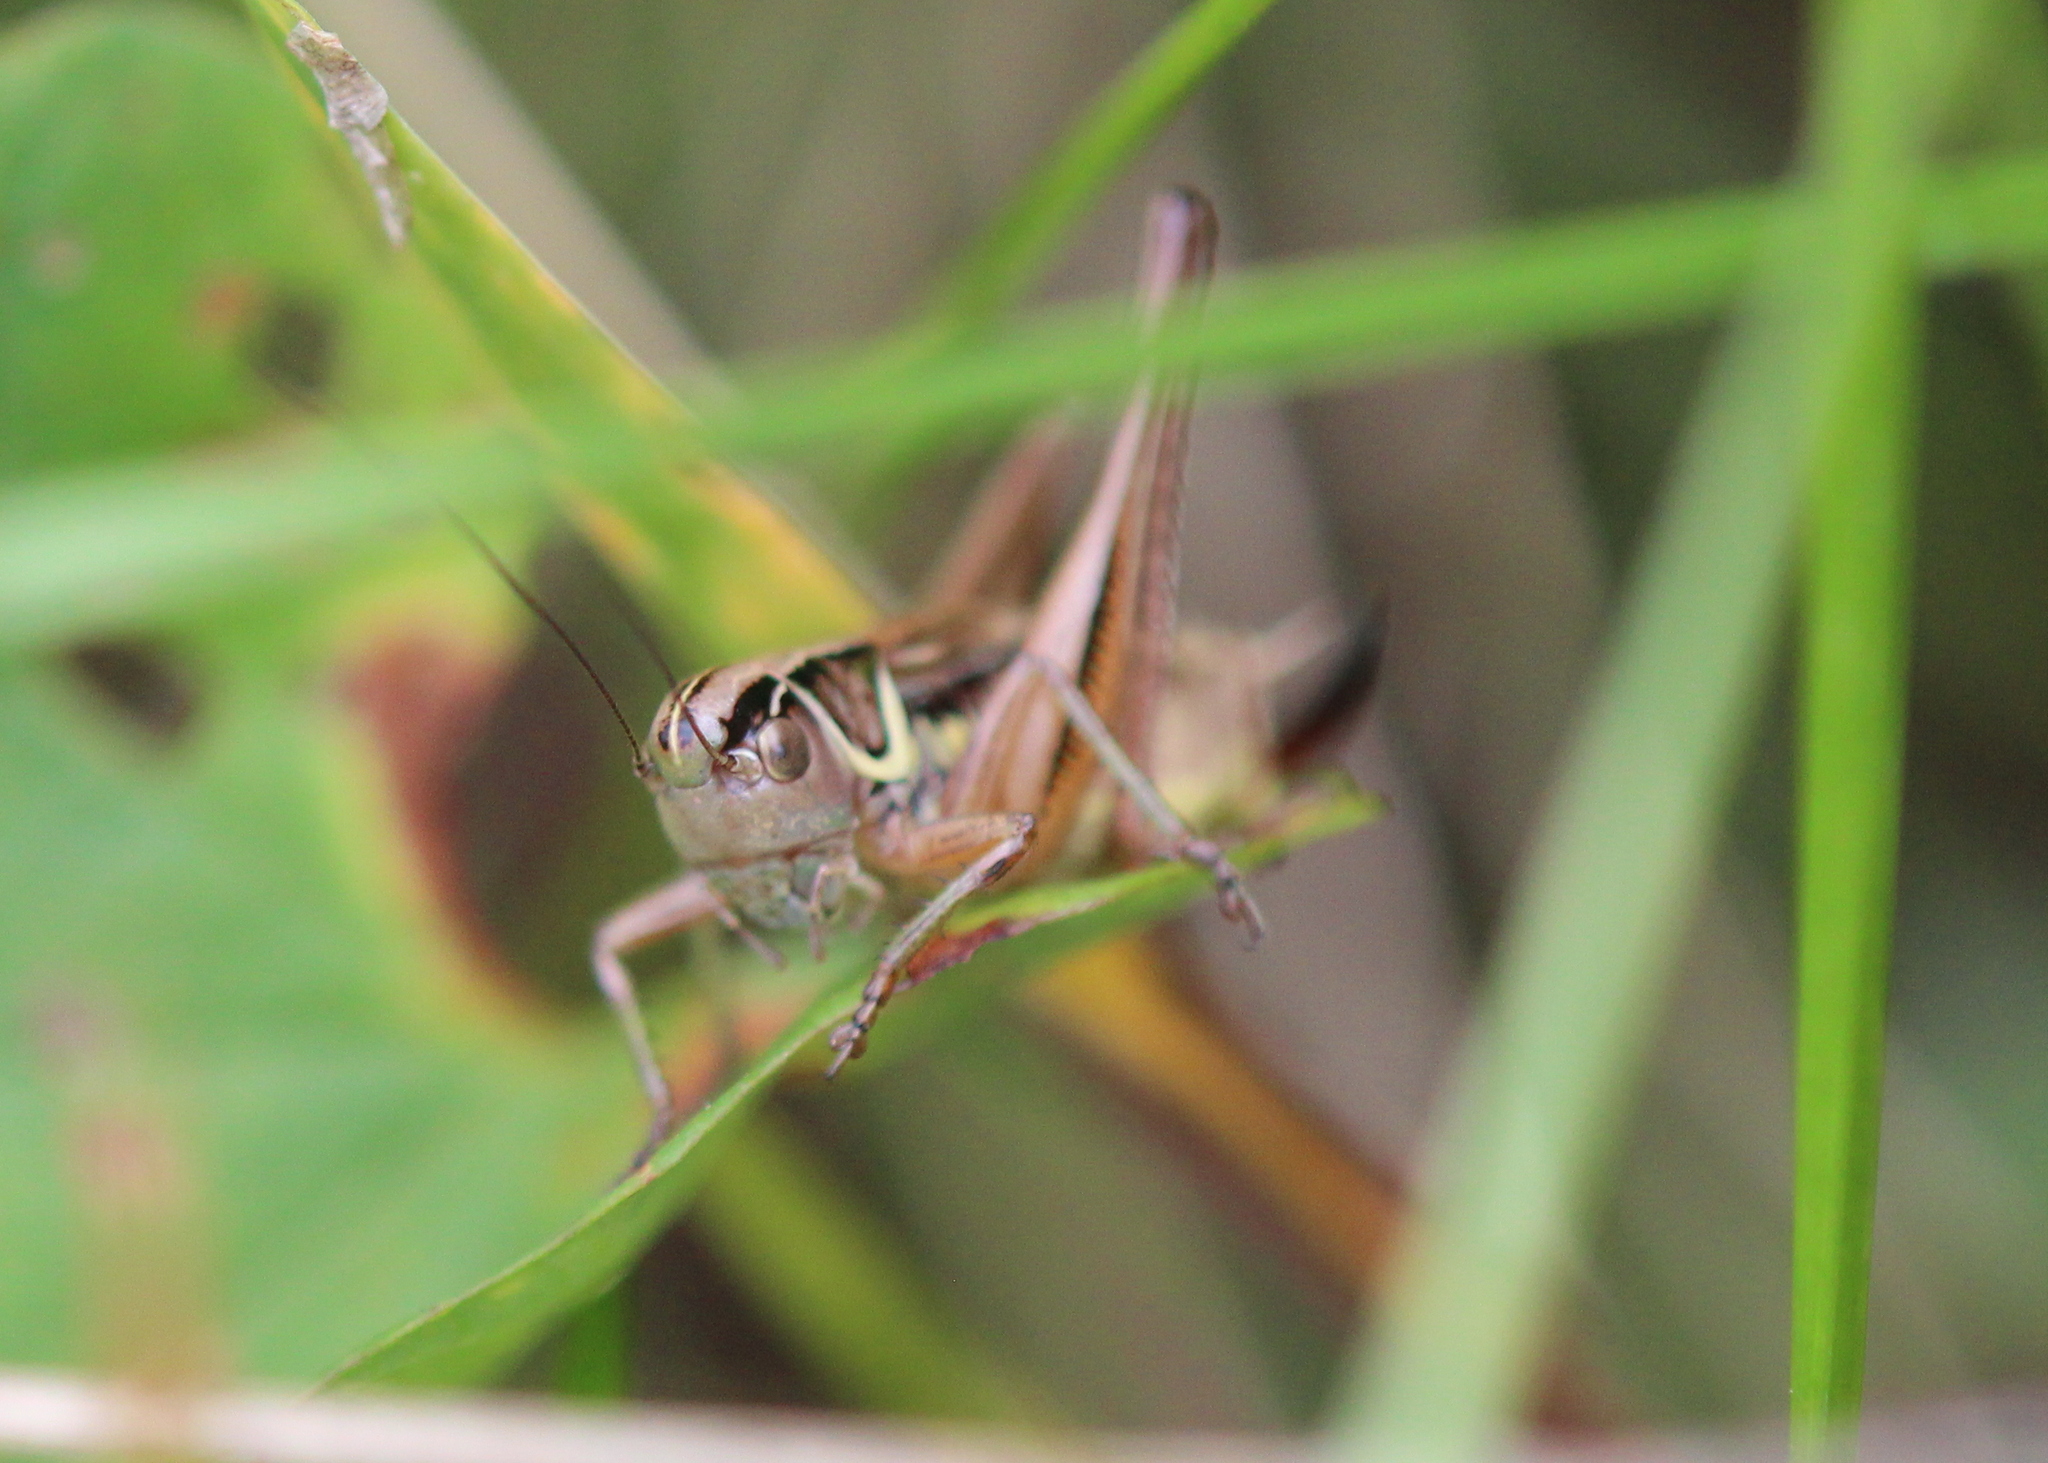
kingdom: Animalia
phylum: Arthropoda
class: Insecta
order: Orthoptera
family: Tettigoniidae
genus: Roeseliana
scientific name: Roeseliana roeselii
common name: Roesel's bush cricket
